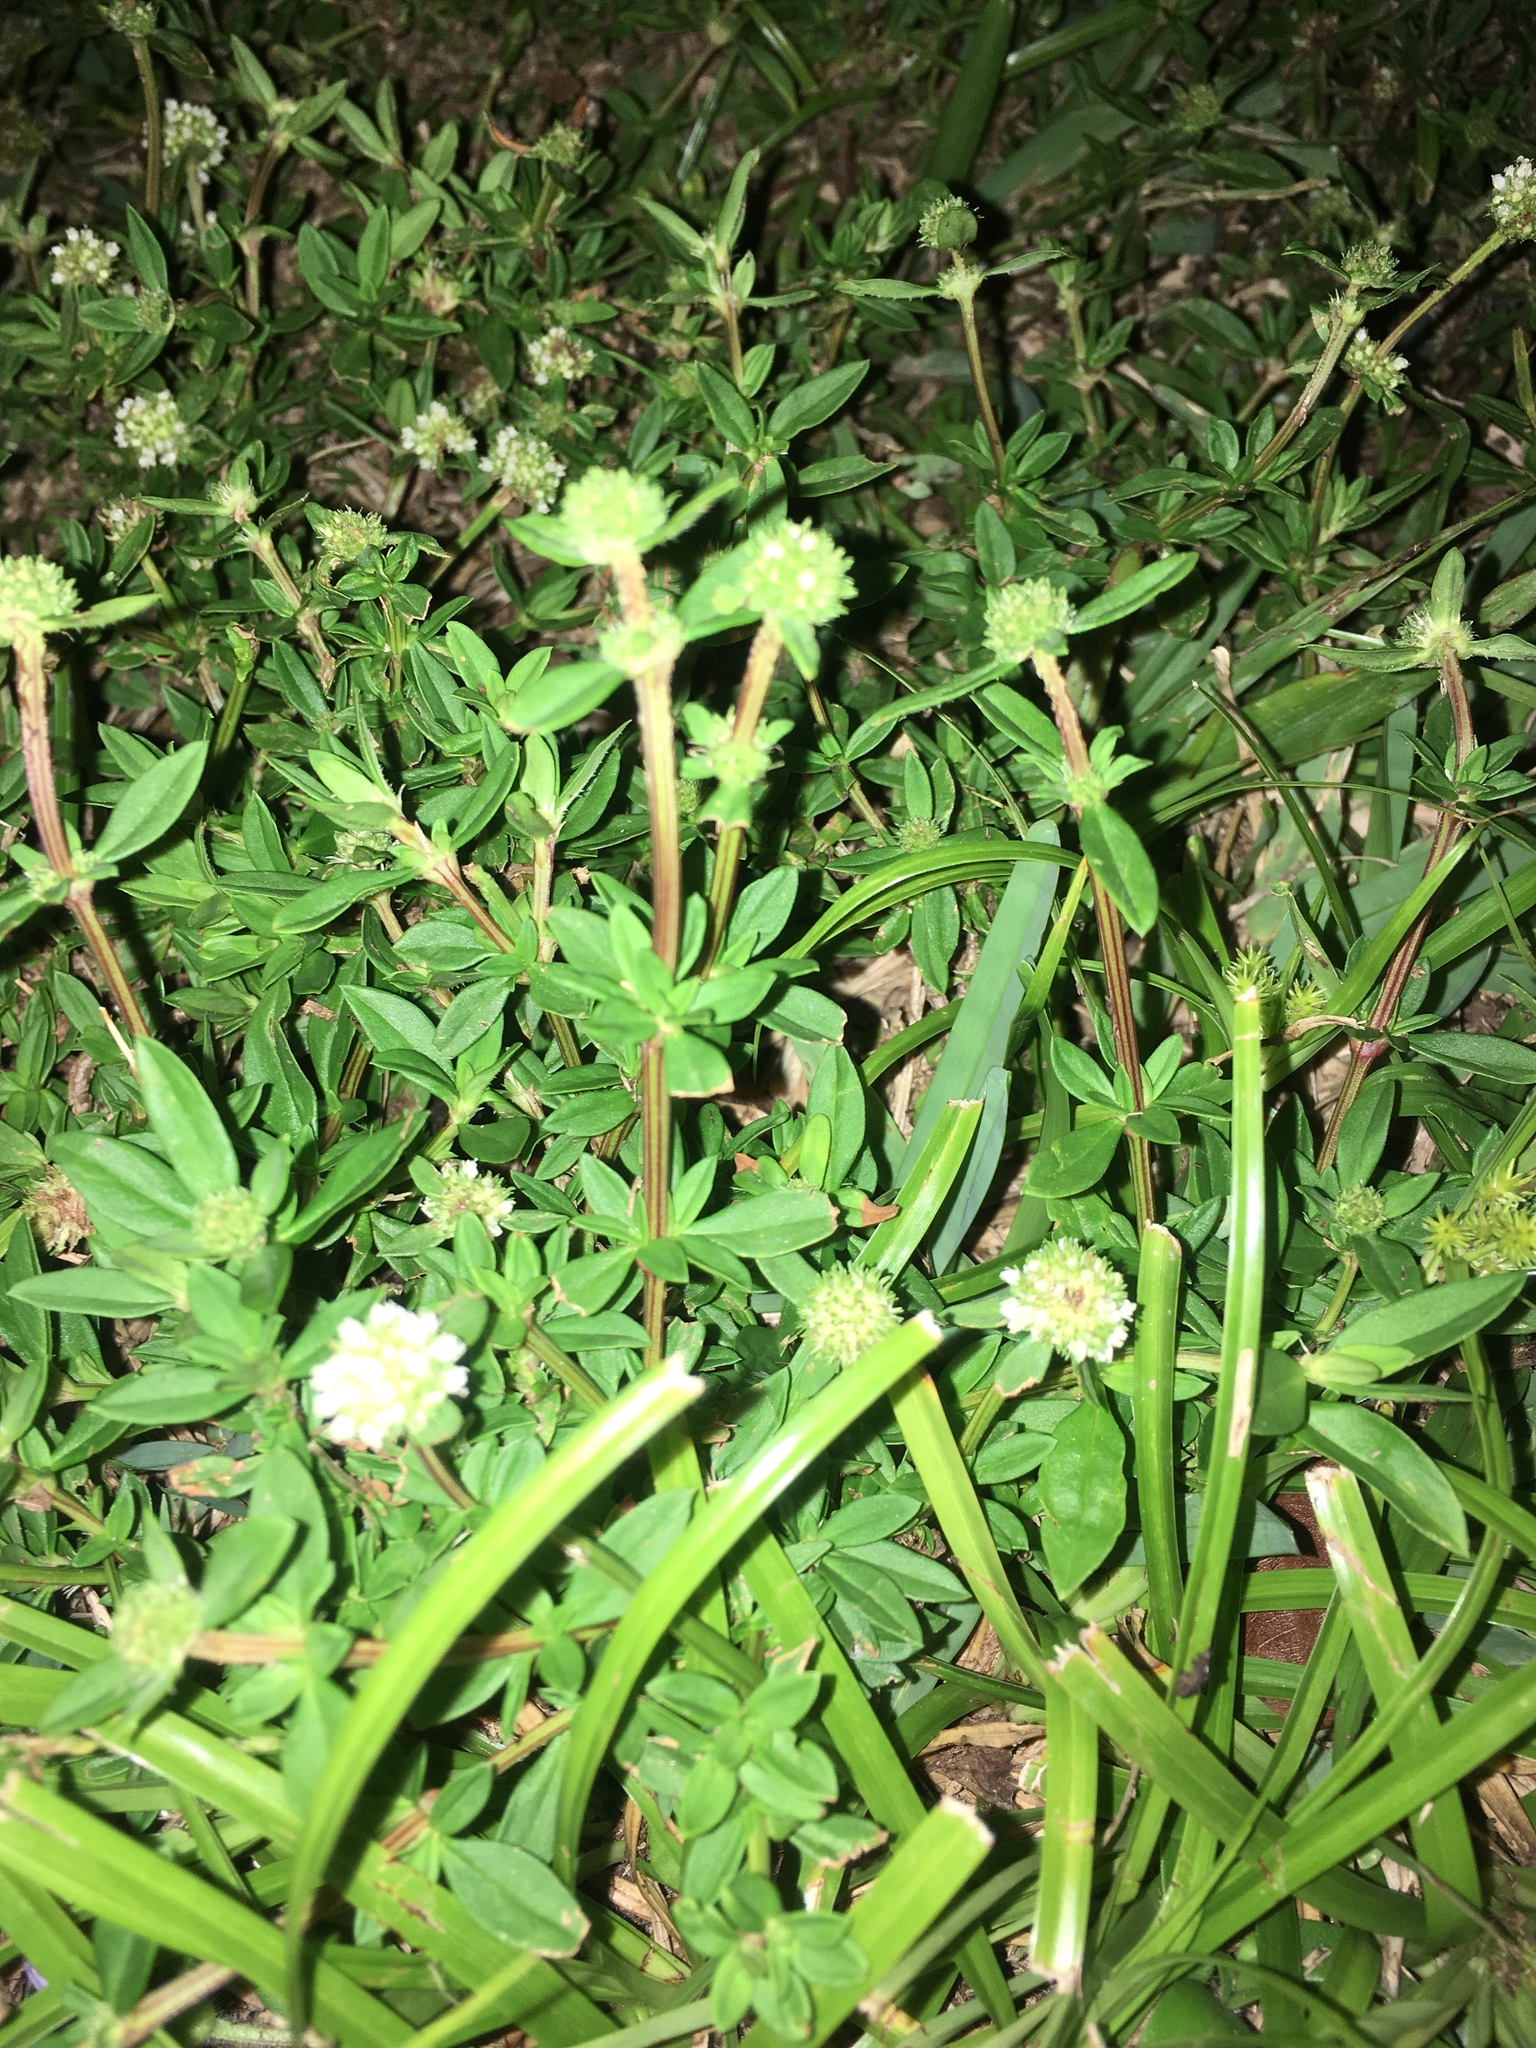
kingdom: Plantae
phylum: Tracheophyta
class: Magnoliopsida
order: Gentianales
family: Rubiaceae
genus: Spermacoce
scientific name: Spermacoce verticillata
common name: Shrubby false buttonweed
